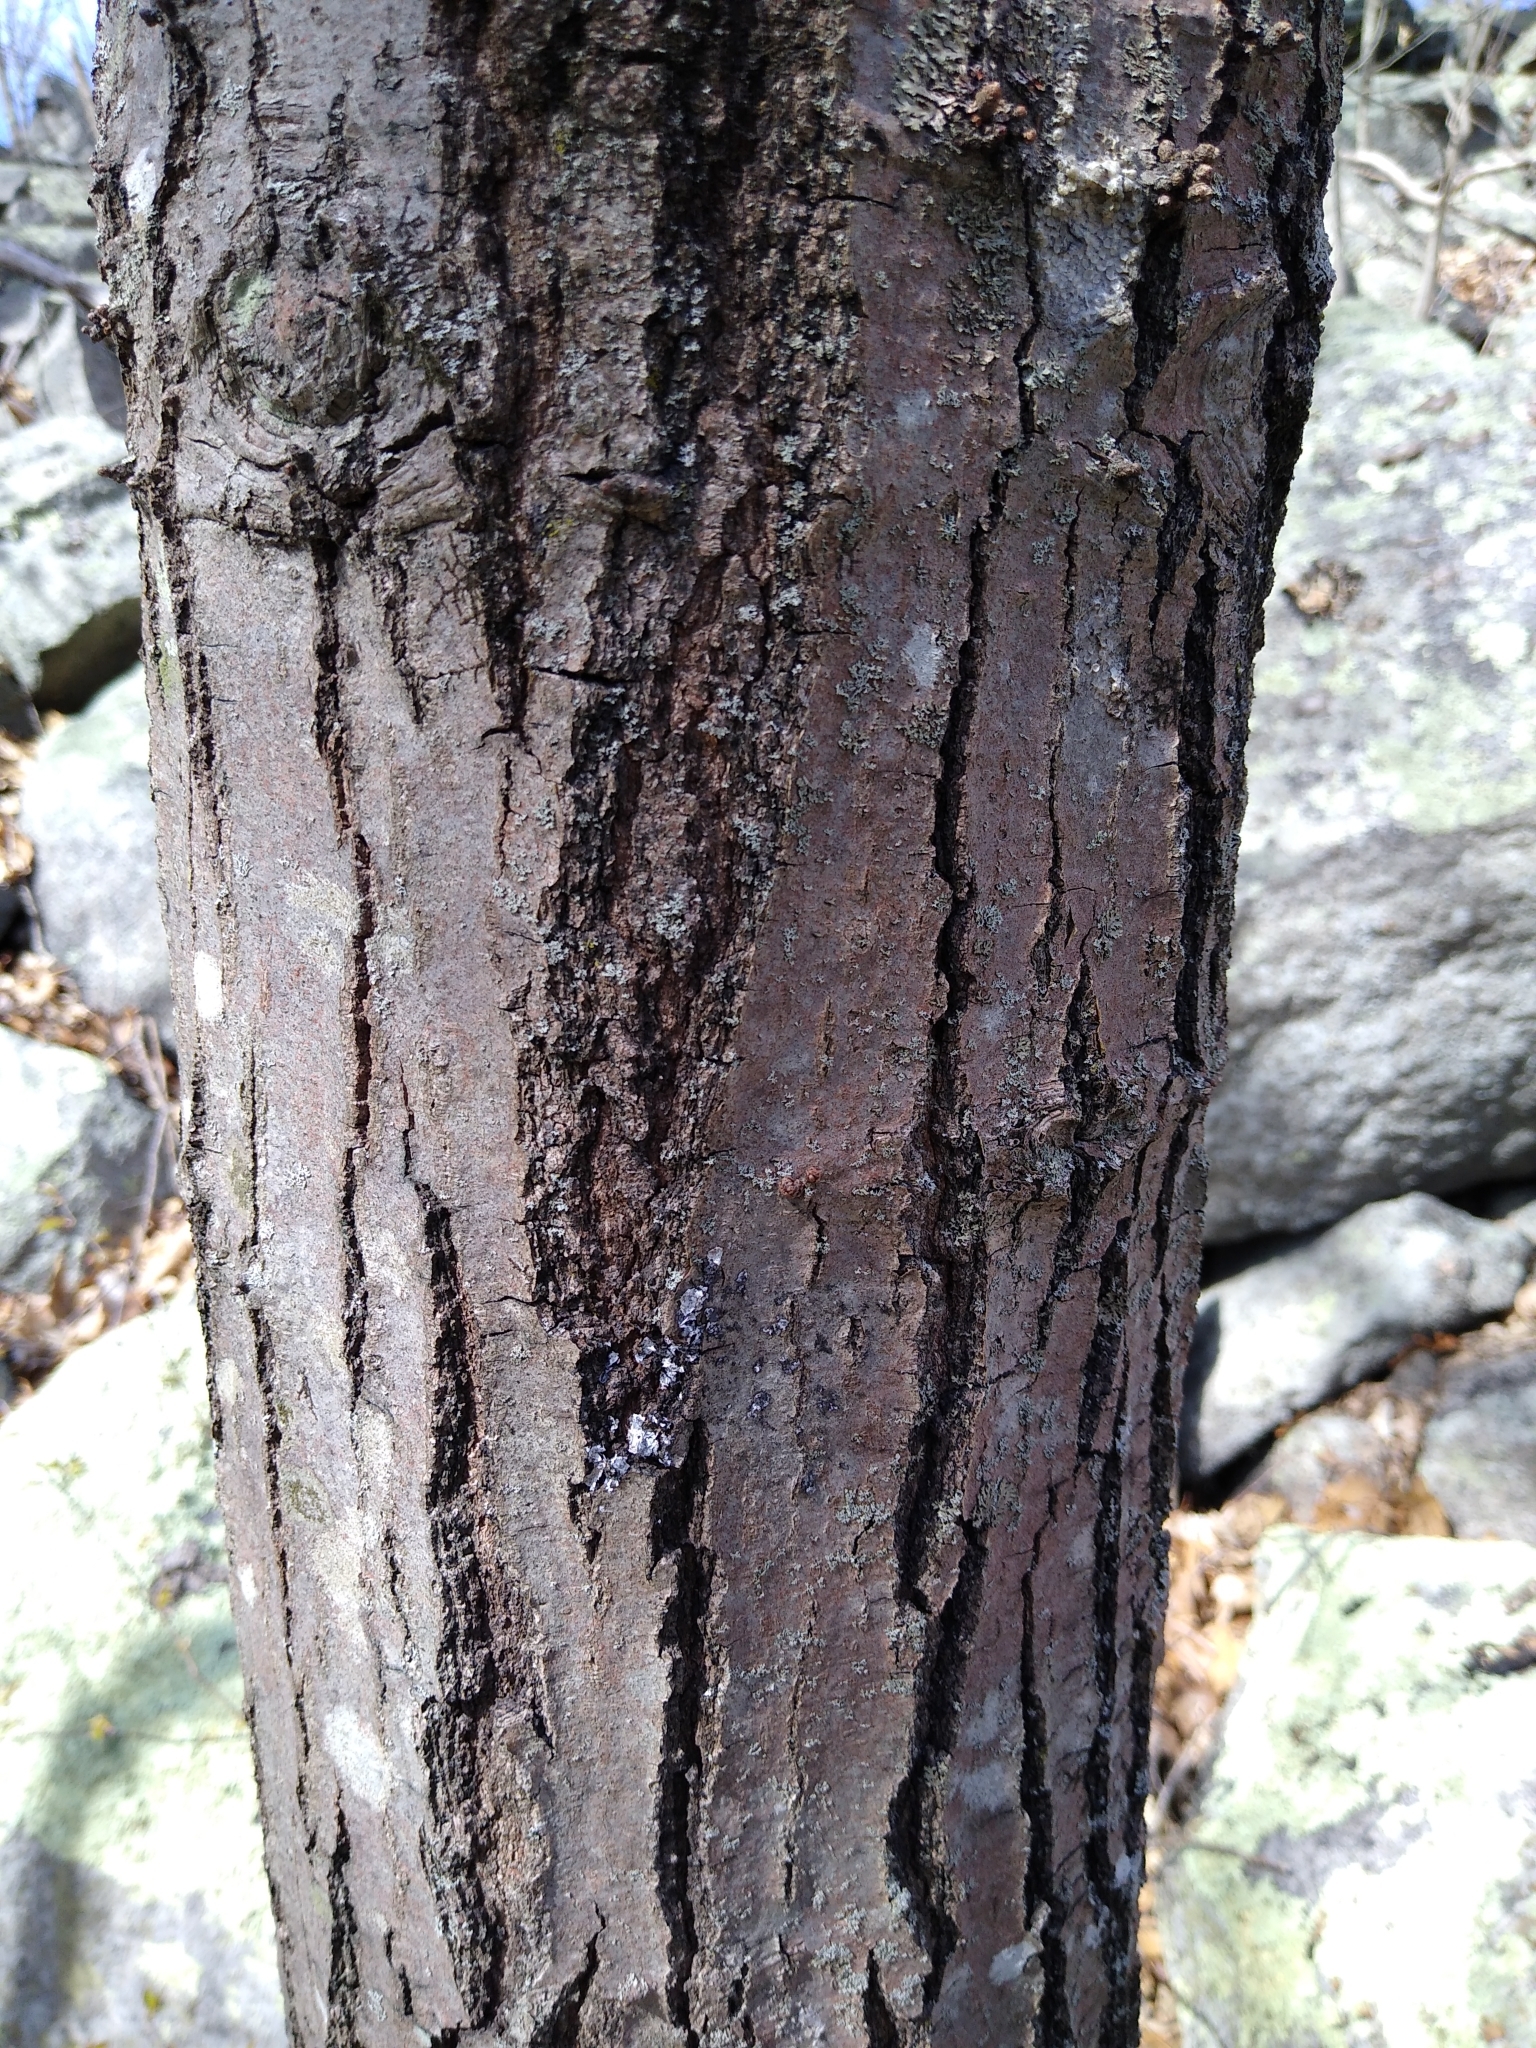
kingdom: Plantae
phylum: Tracheophyta
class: Magnoliopsida
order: Fagales
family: Fagaceae
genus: Quercus
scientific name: Quercus rubra
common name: Red oak
